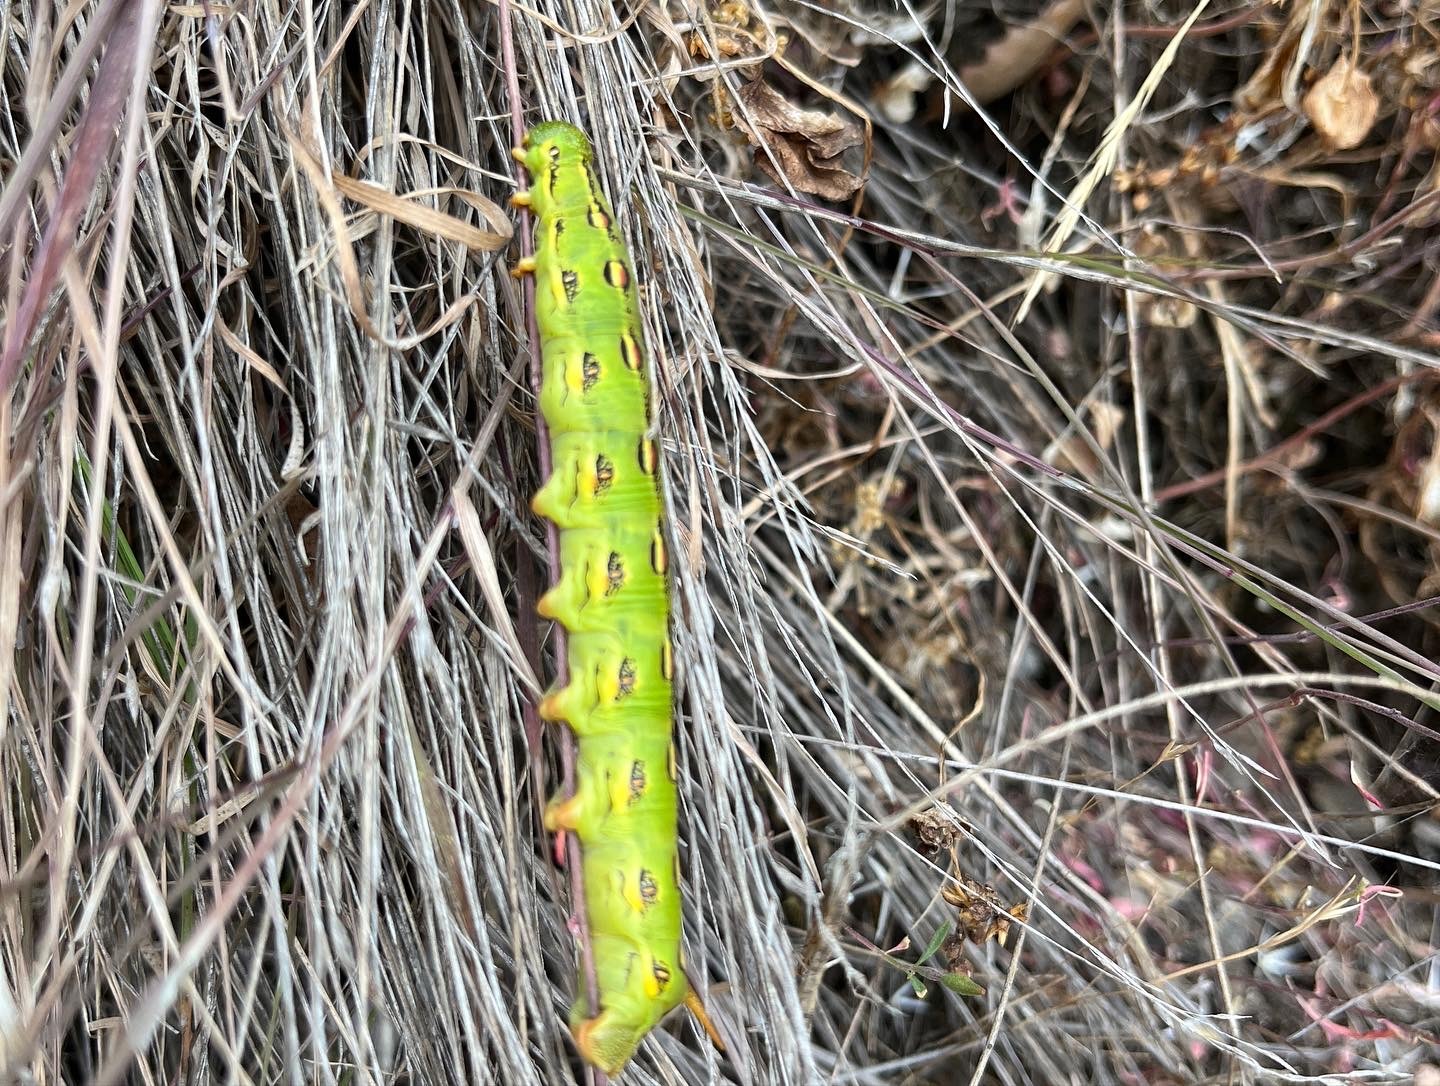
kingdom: Animalia
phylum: Arthropoda
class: Insecta
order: Lepidoptera
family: Sphingidae
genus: Hyles
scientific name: Hyles lineata
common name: White-lined sphinx
